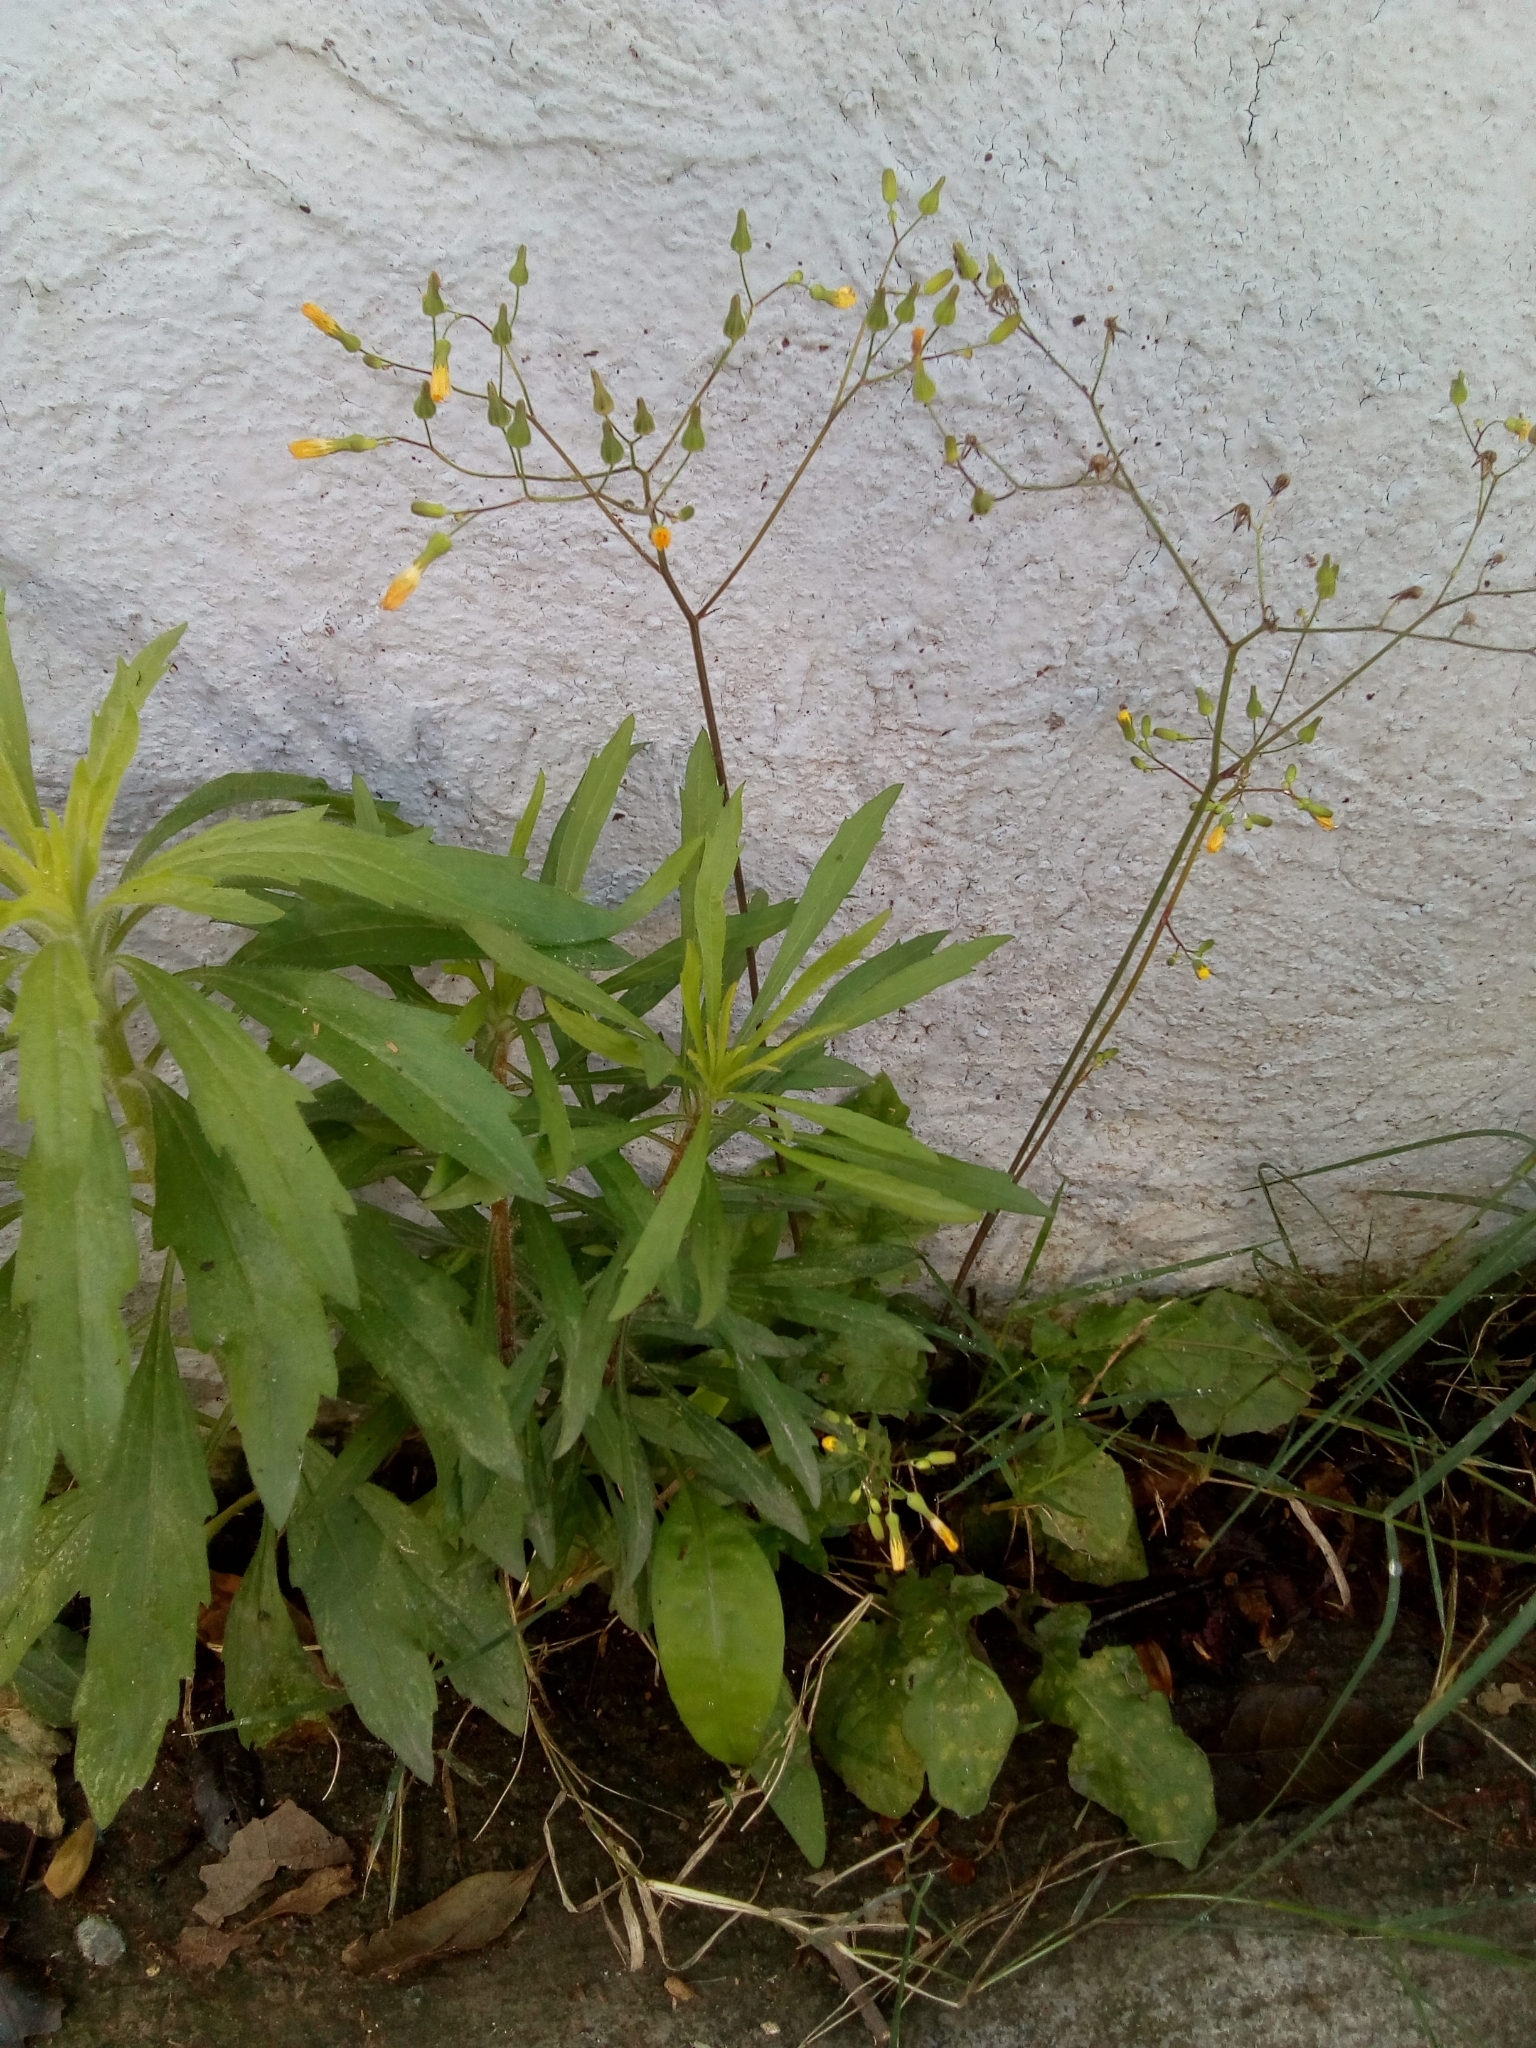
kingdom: Plantae
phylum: Tracheophyta
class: Magnoliopsida
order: Asterales
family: Asteraceae
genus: Youngia
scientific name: Youngia japonica
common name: Oriental false hawksbeard
